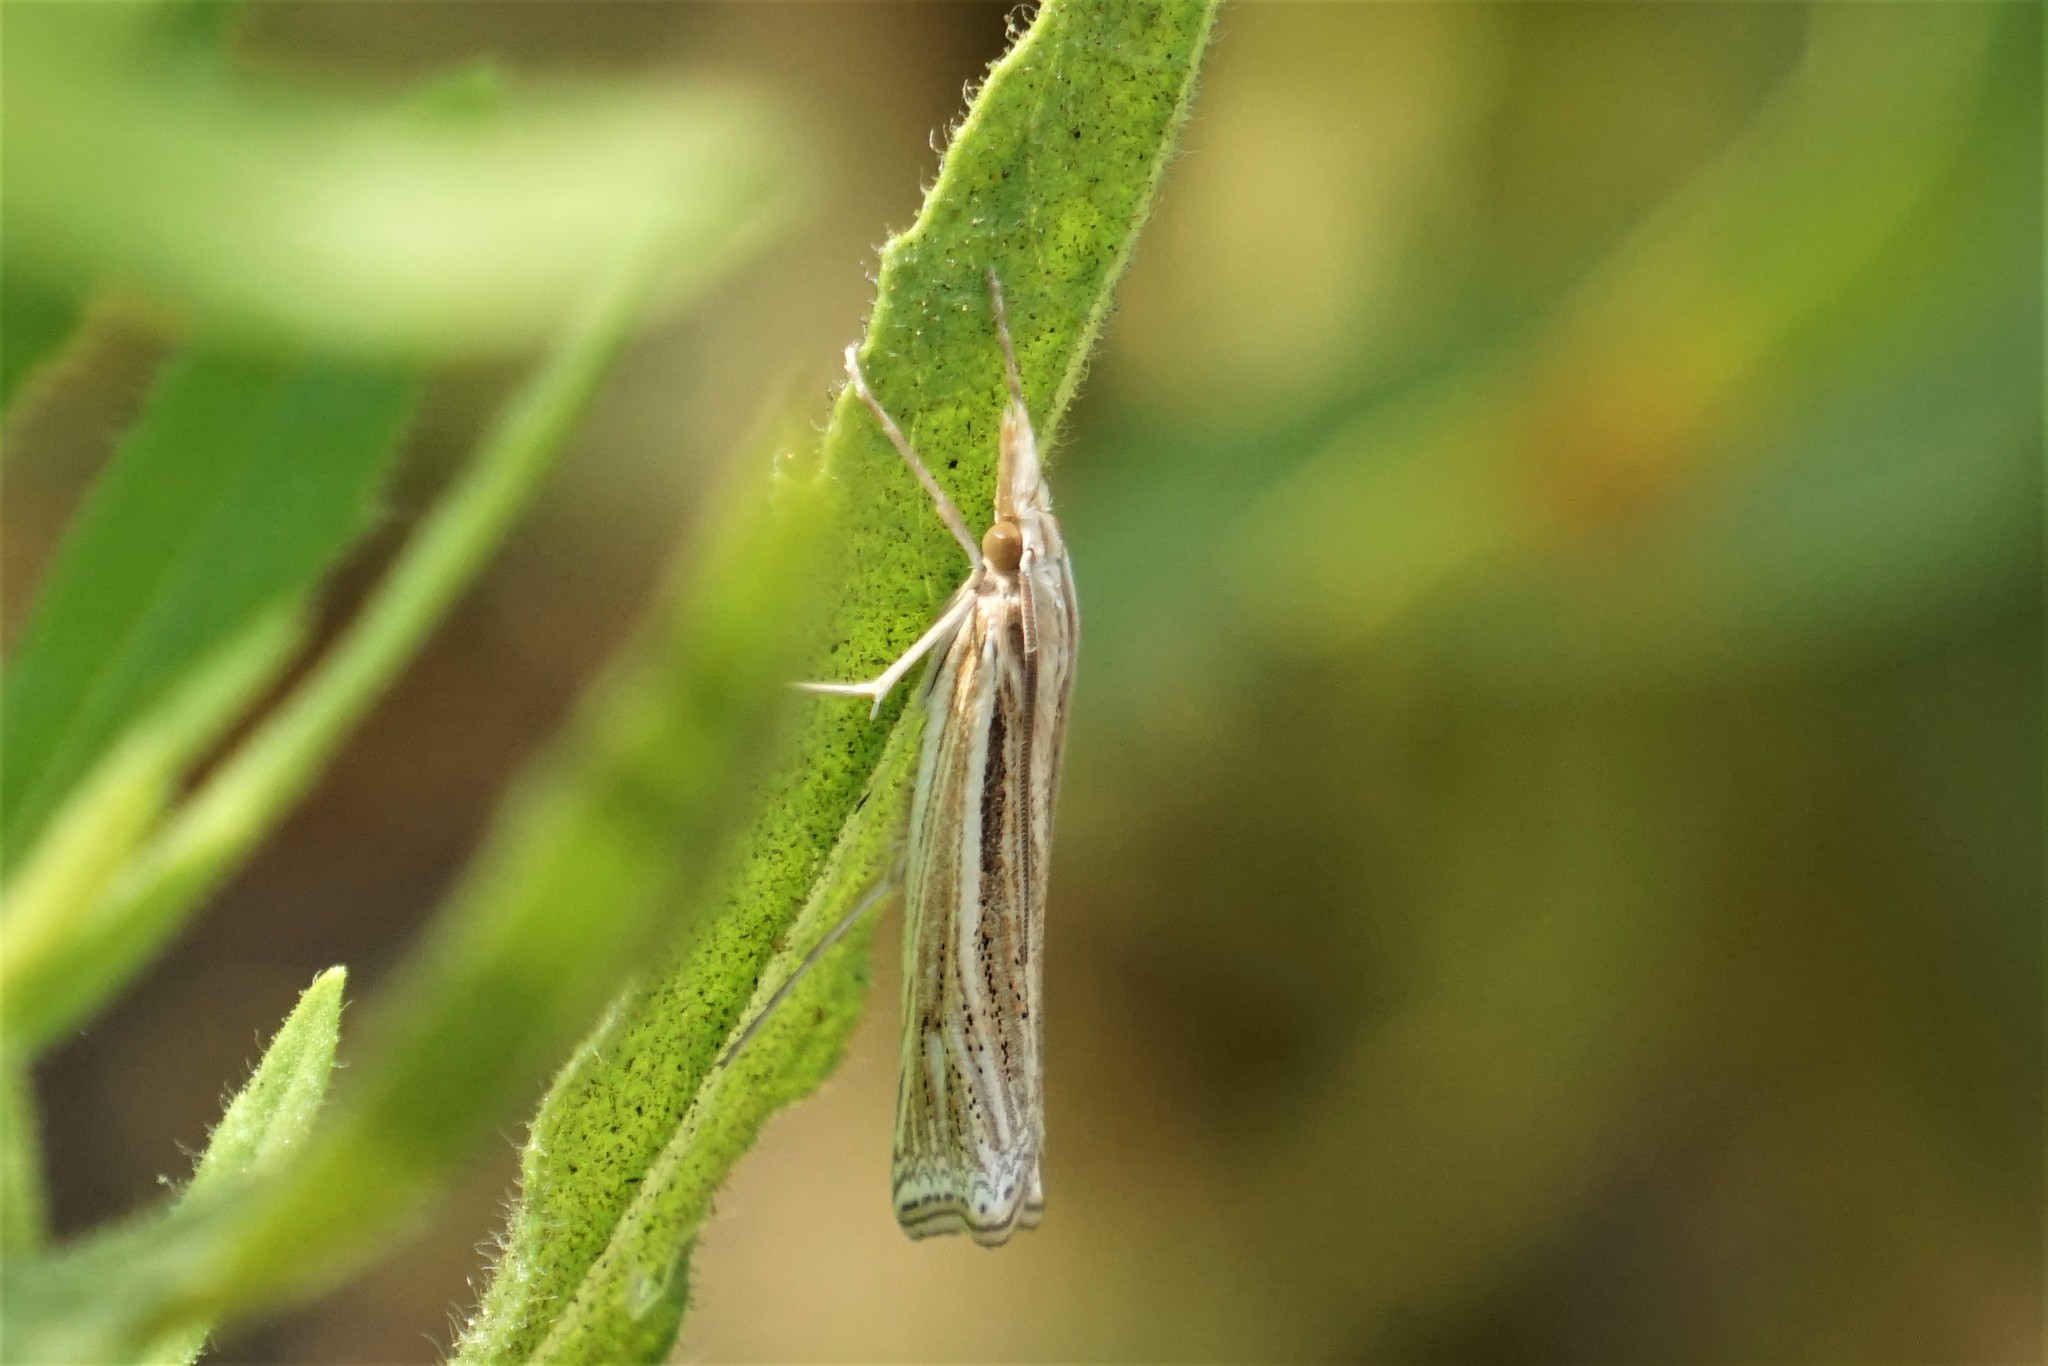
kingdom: Animalia
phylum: Arthropoda
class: Insecta
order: Lepidoptera
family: Crambidae
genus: Ancylolomia
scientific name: Ancylolomia tentaculella
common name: Scarce striped grass-veneer
